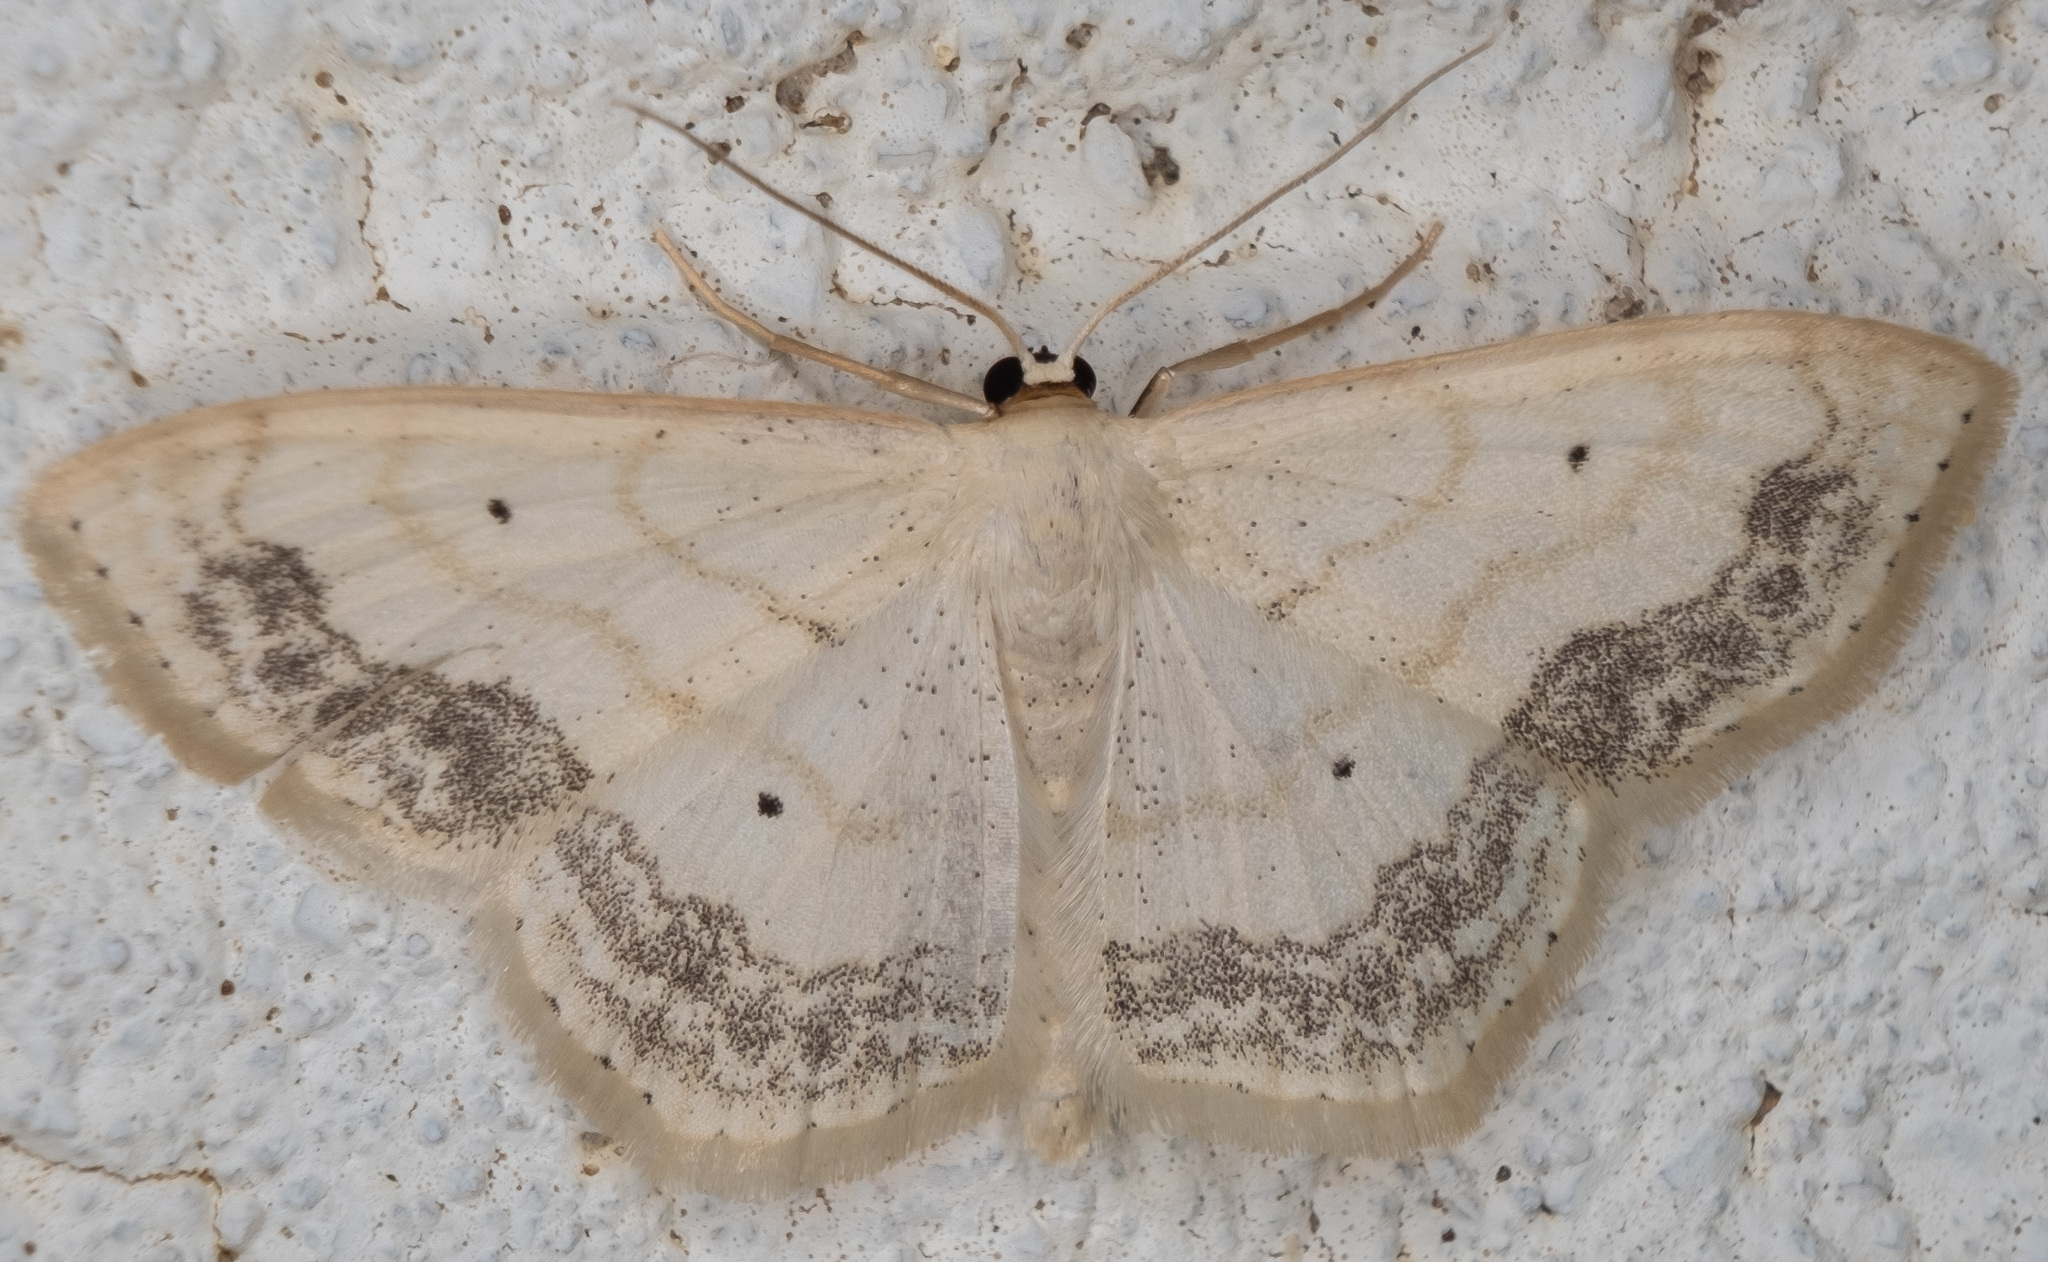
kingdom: Animalia
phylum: Arthropoda
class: Insecta
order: Lepidoptera
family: Geometridae
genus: Scopula
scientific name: Scopula limboundata
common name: Large lace border
